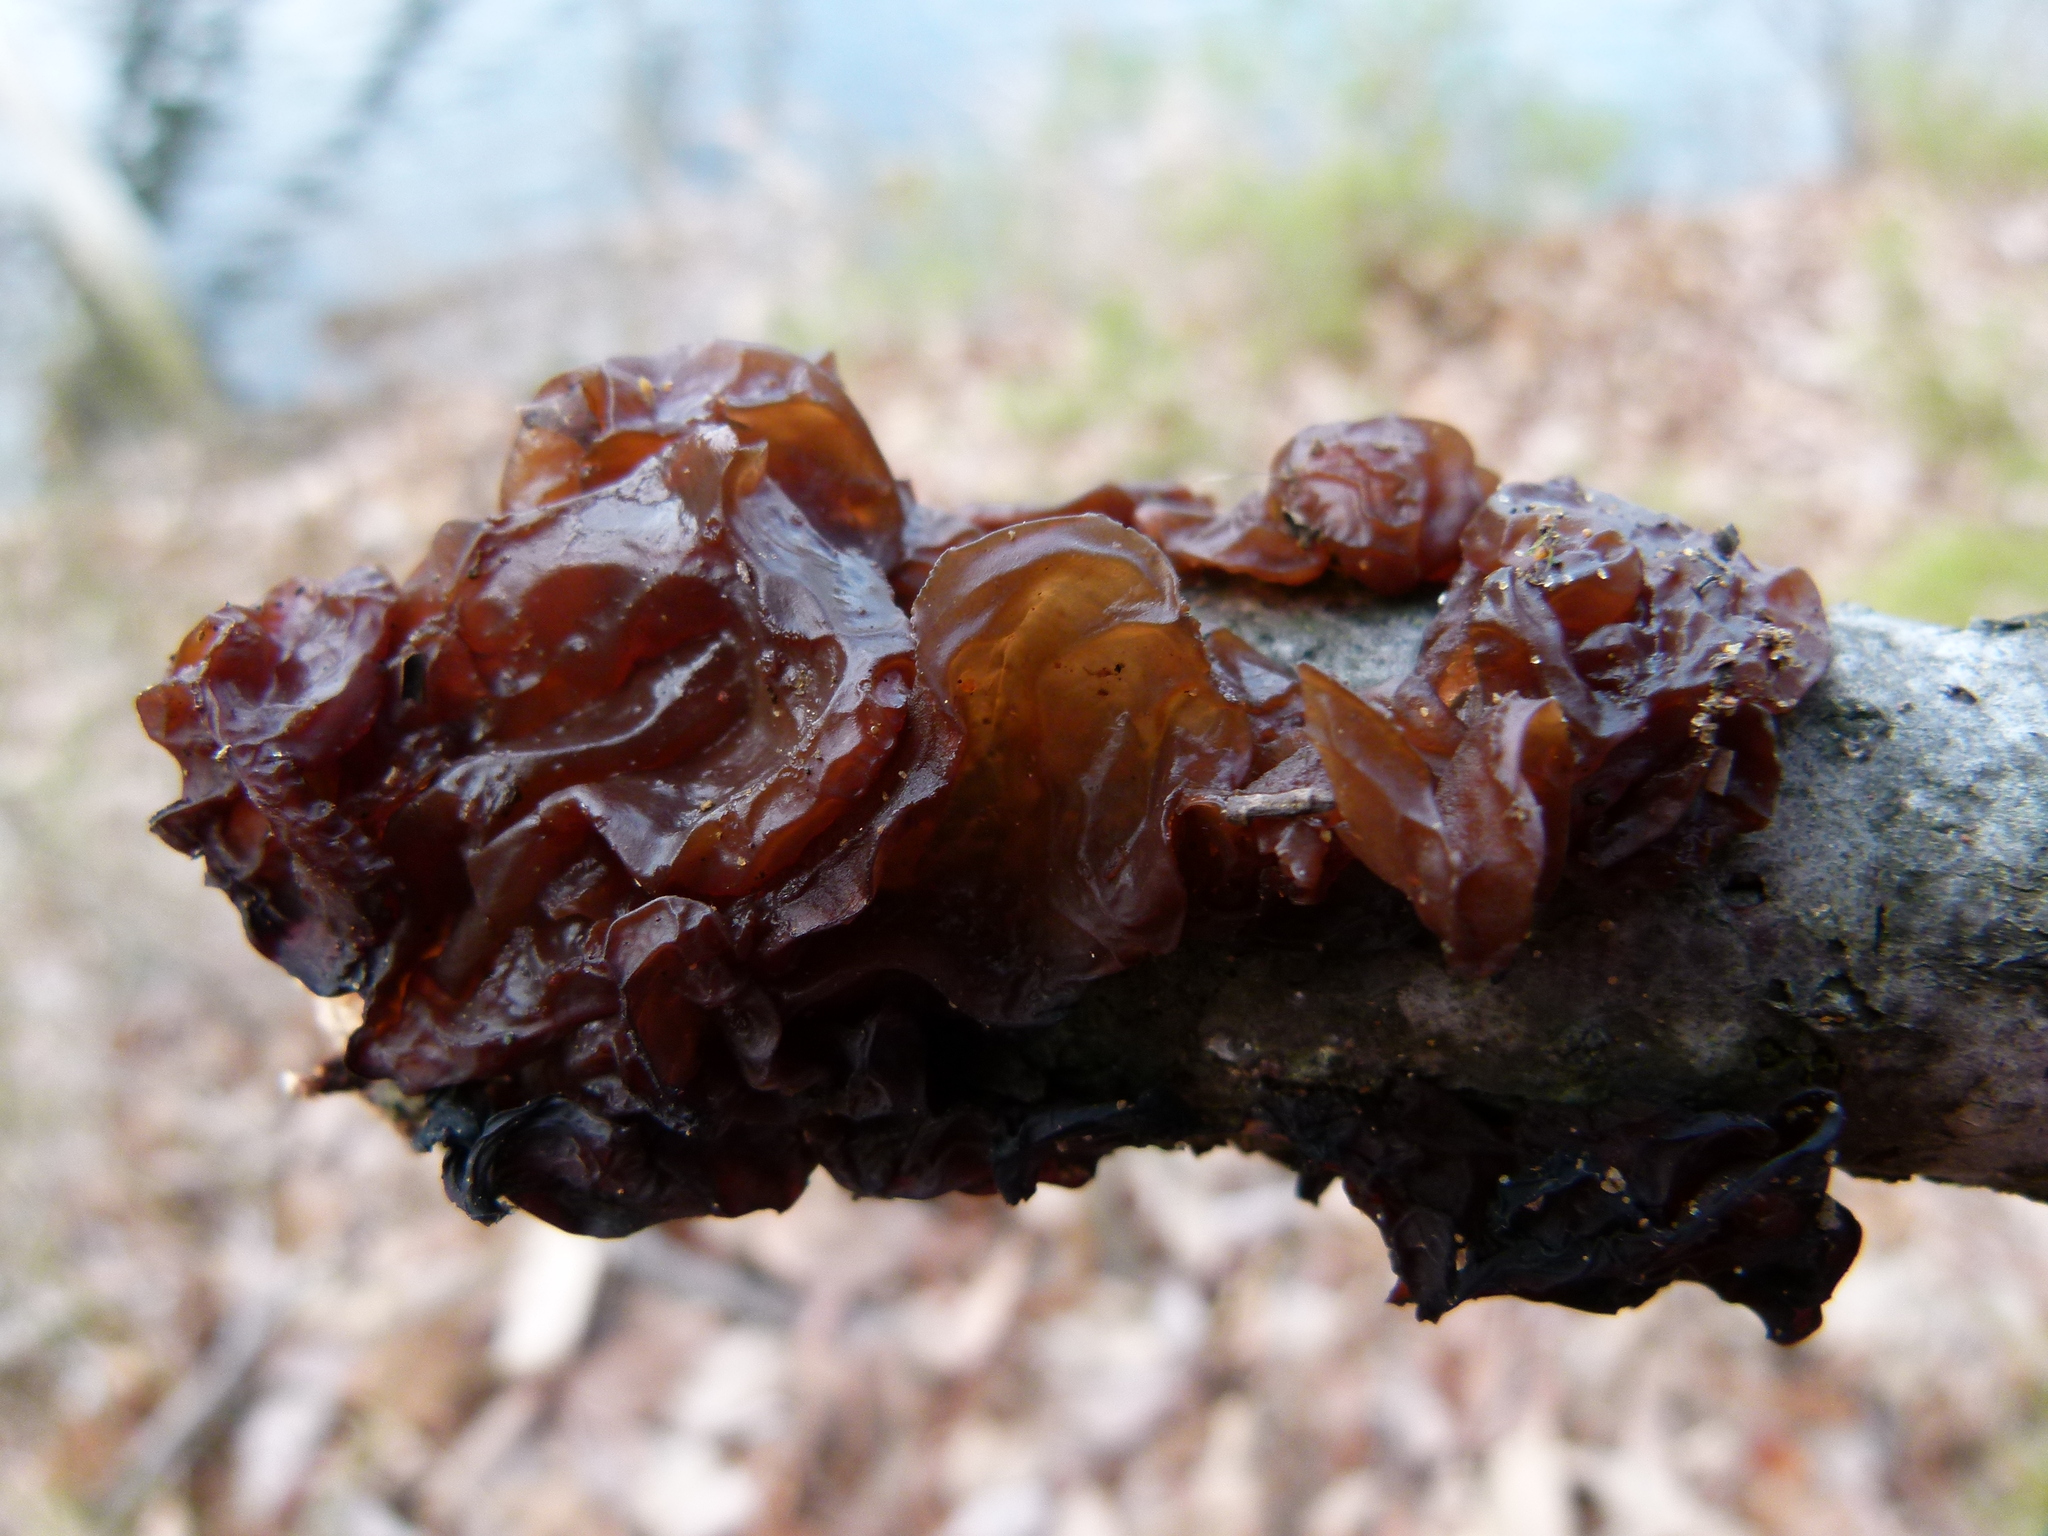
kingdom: Fungi
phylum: Basidiomycota
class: Agaricomycetes
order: Auriculariales
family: Auriculariaceae
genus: Exidia
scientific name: Exidia
